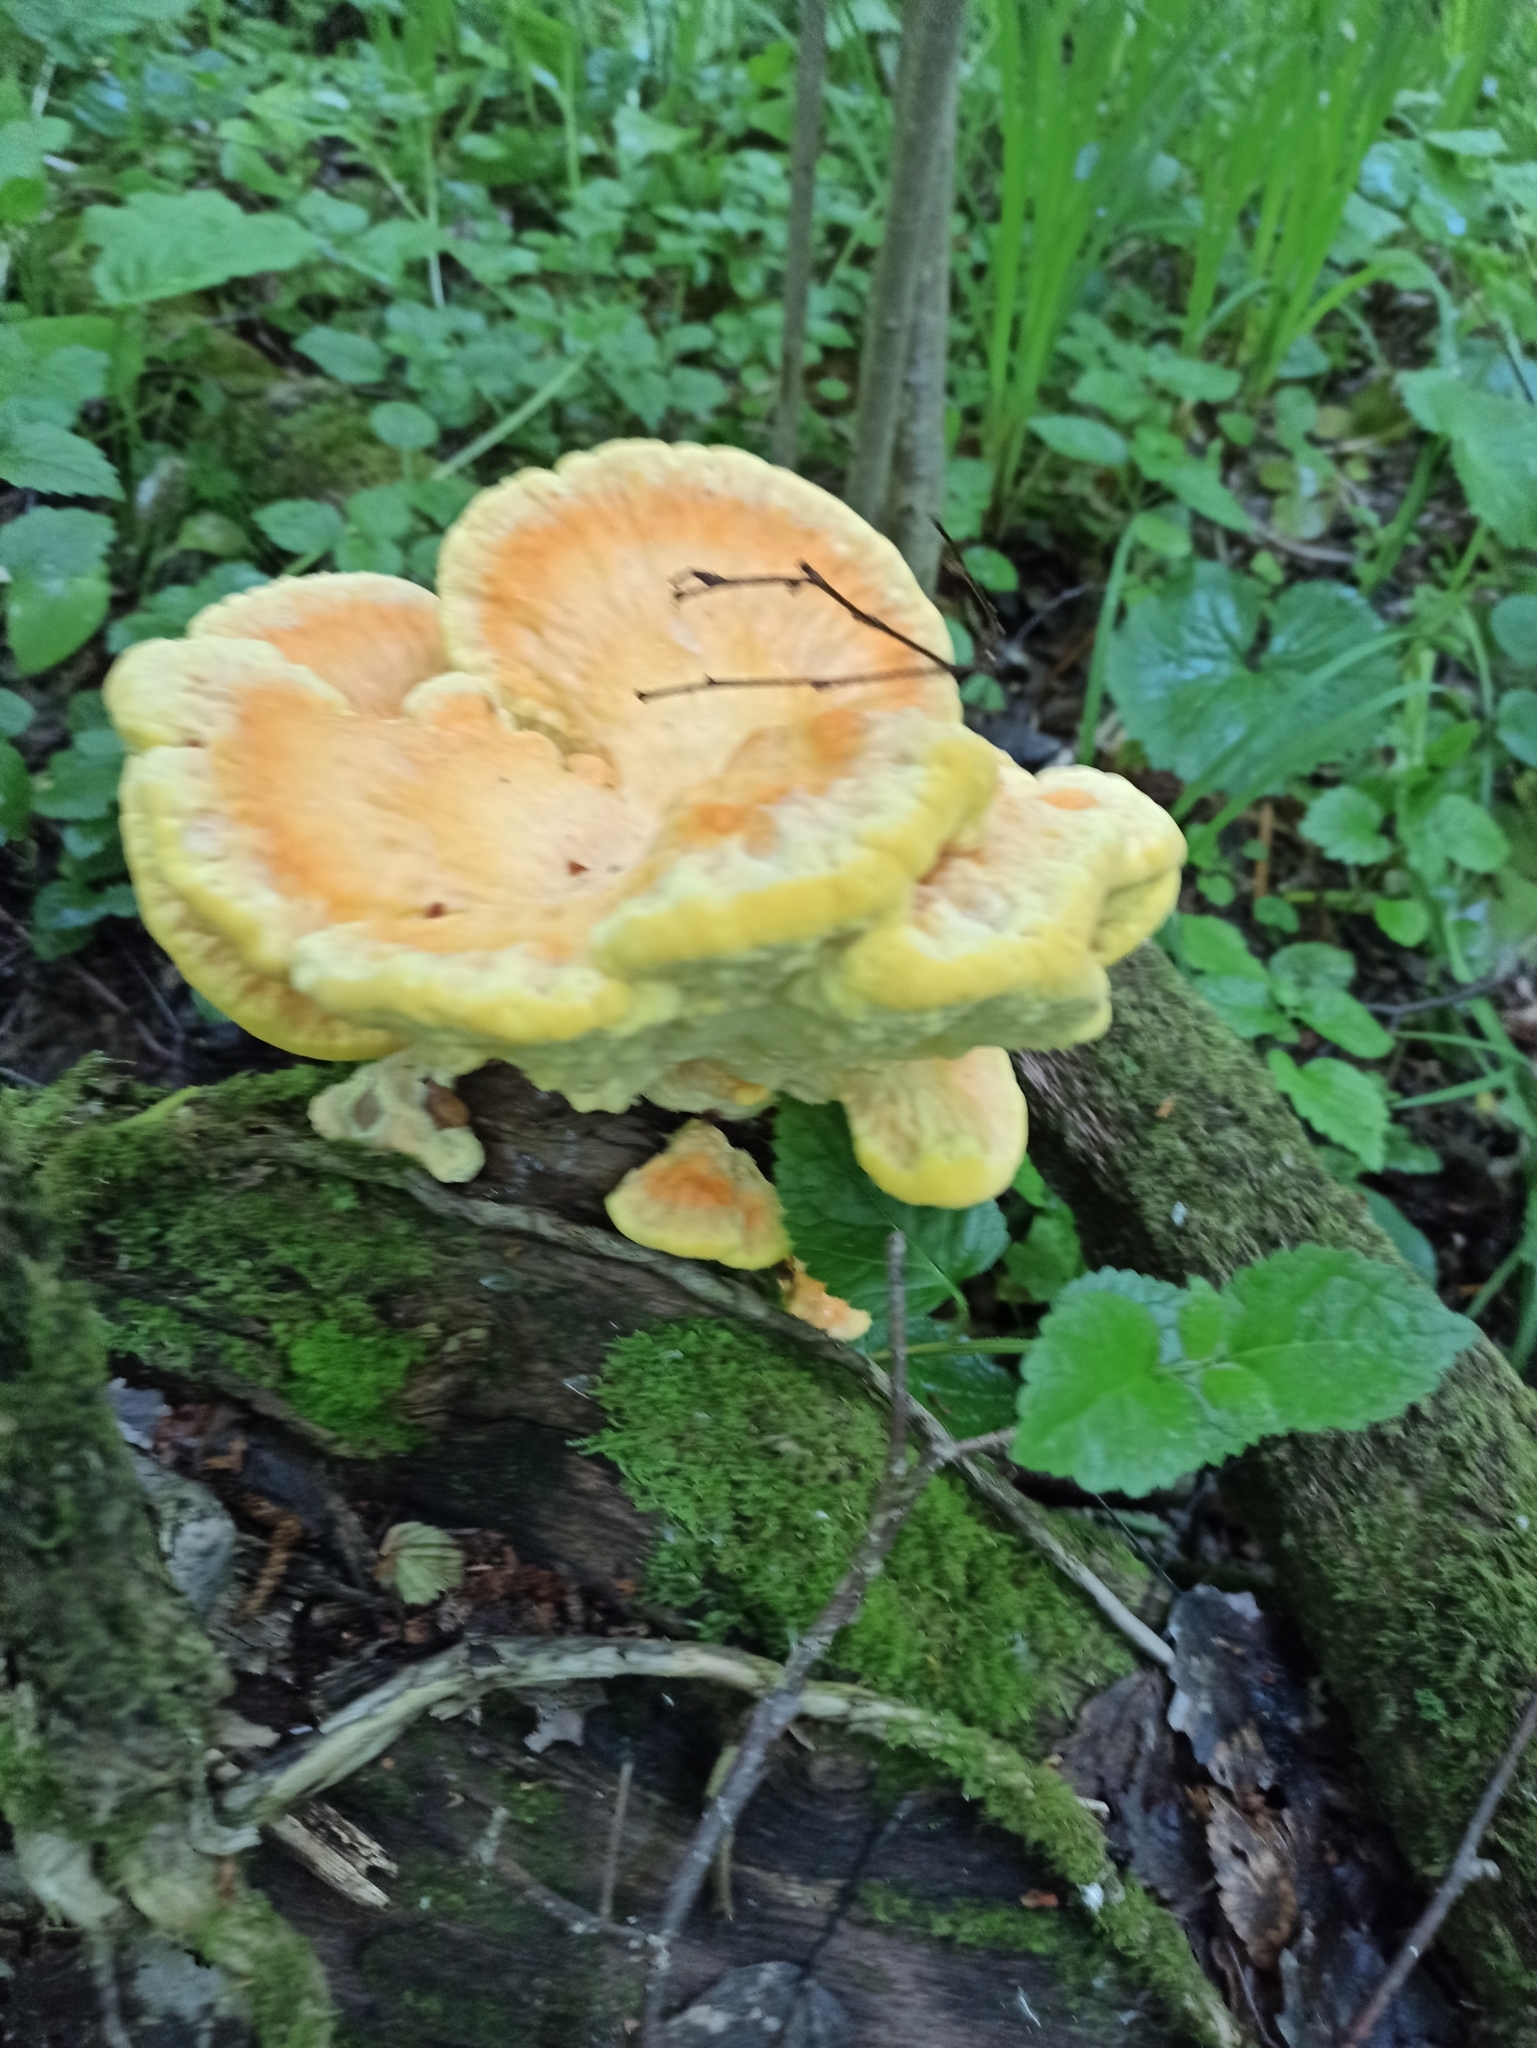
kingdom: Fungi
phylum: Basidiomycota
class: Agaricomycetes
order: Polyporales
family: Laetiporaceae
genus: Laetiporus
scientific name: Laetiporus sulphureus
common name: Chicken of the woods
